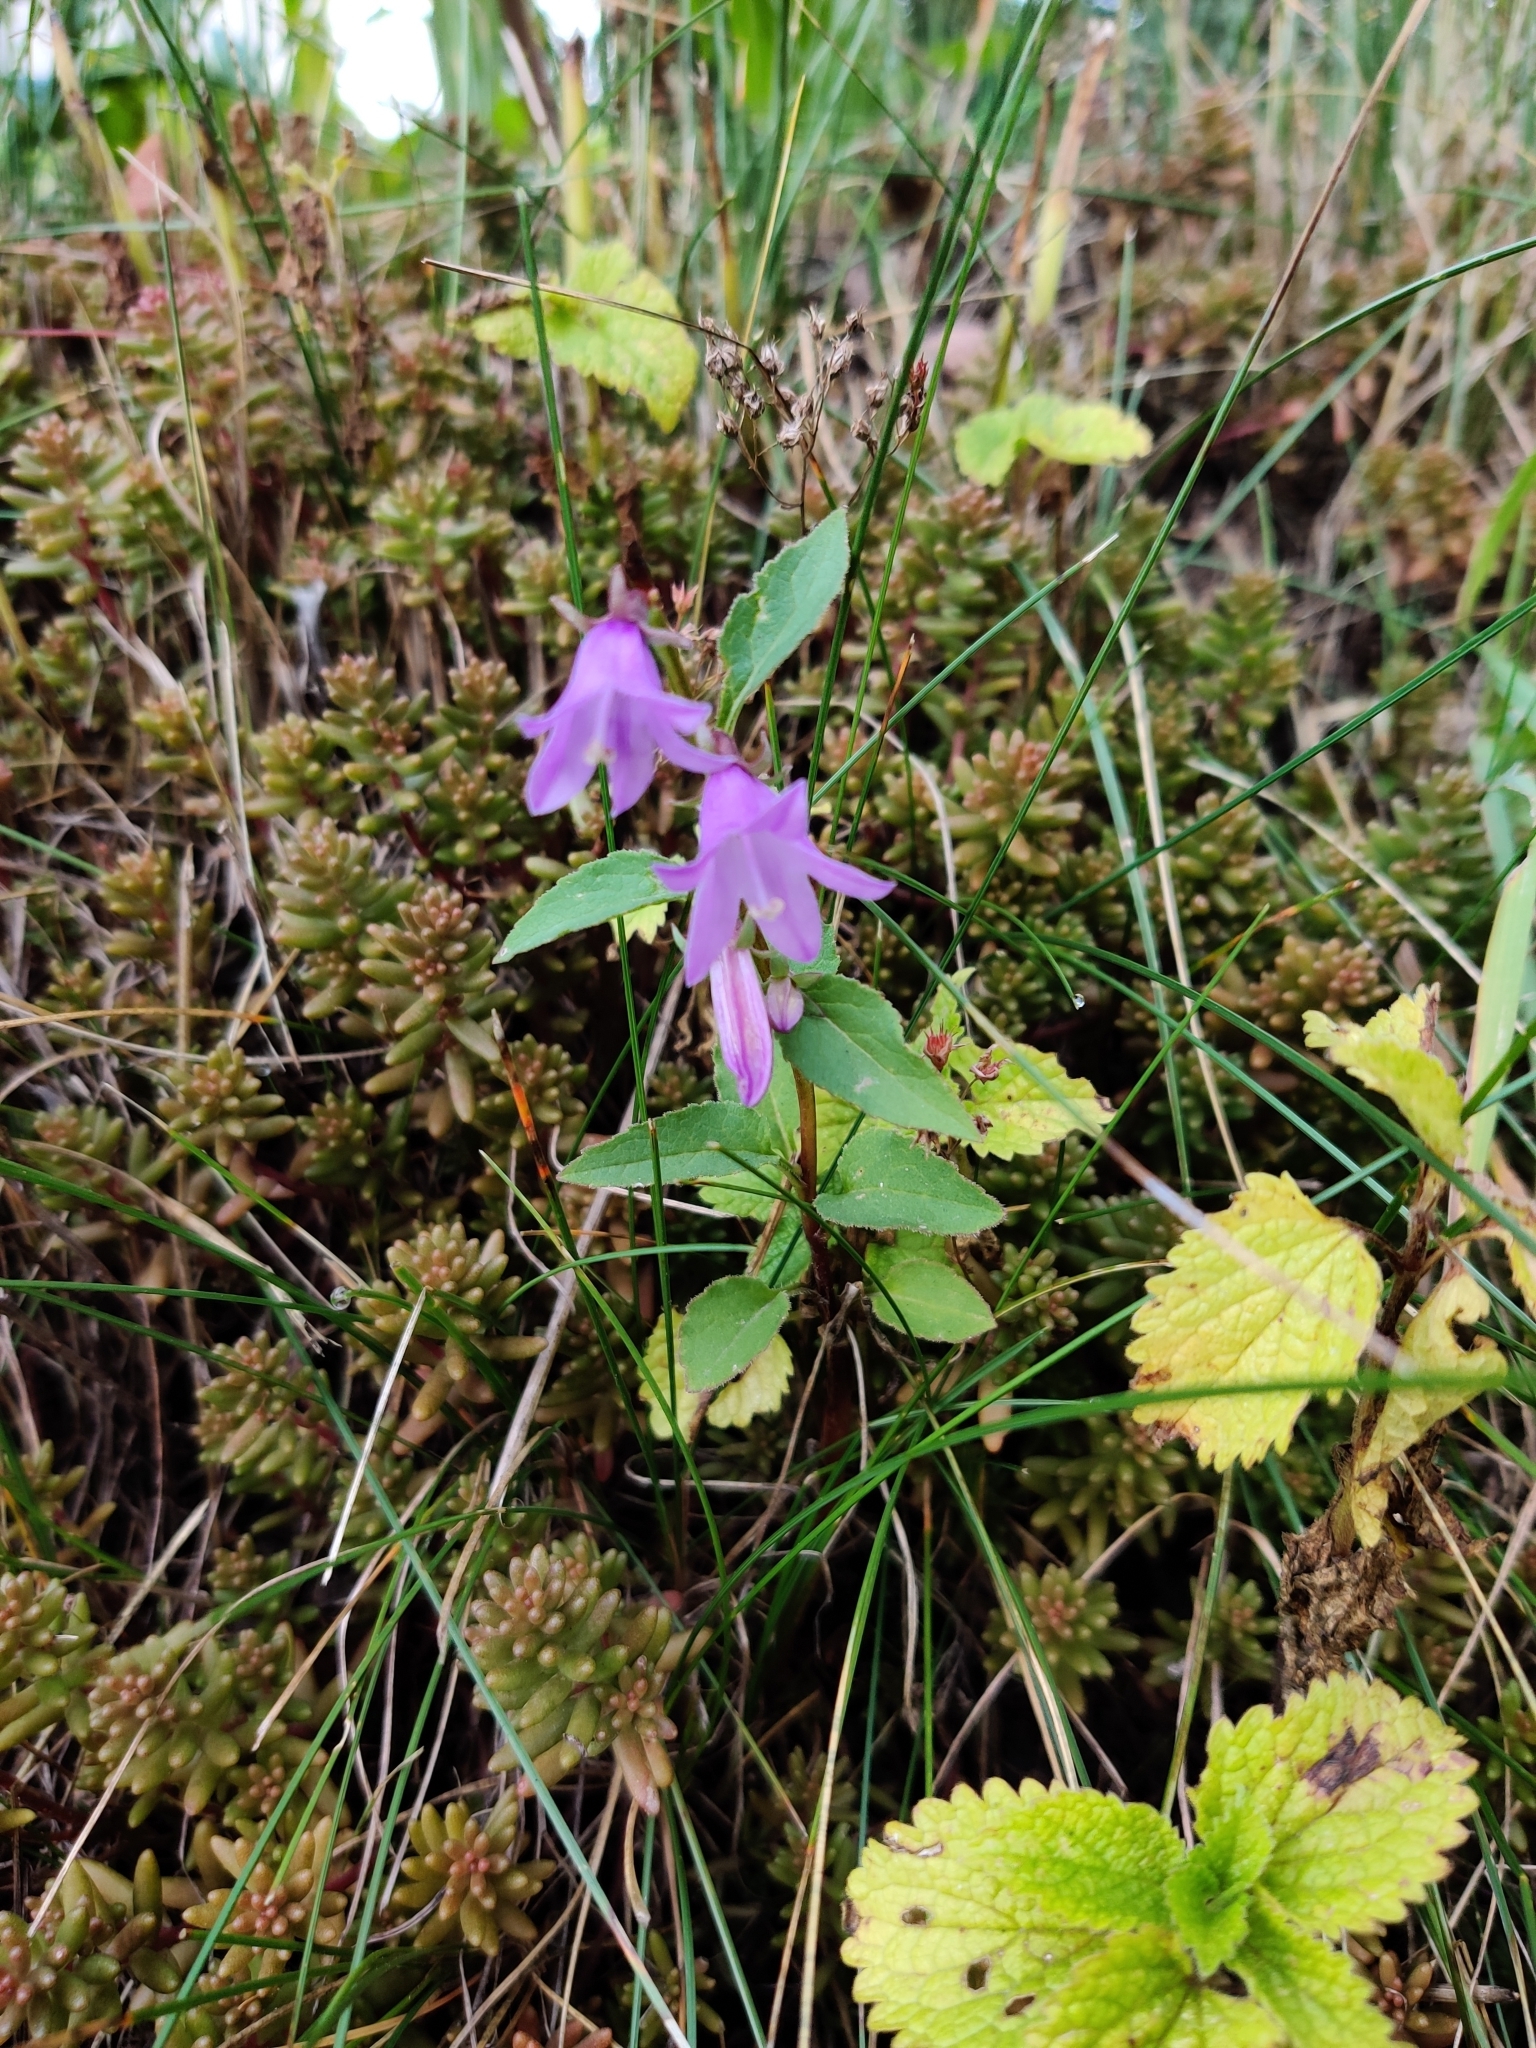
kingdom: Plantae
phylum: Tracheophyta
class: Magnoliopsida
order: Asterales
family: Campanulaceae
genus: Campanula
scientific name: Campanula rapunculoides
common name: Creeping bellflower
